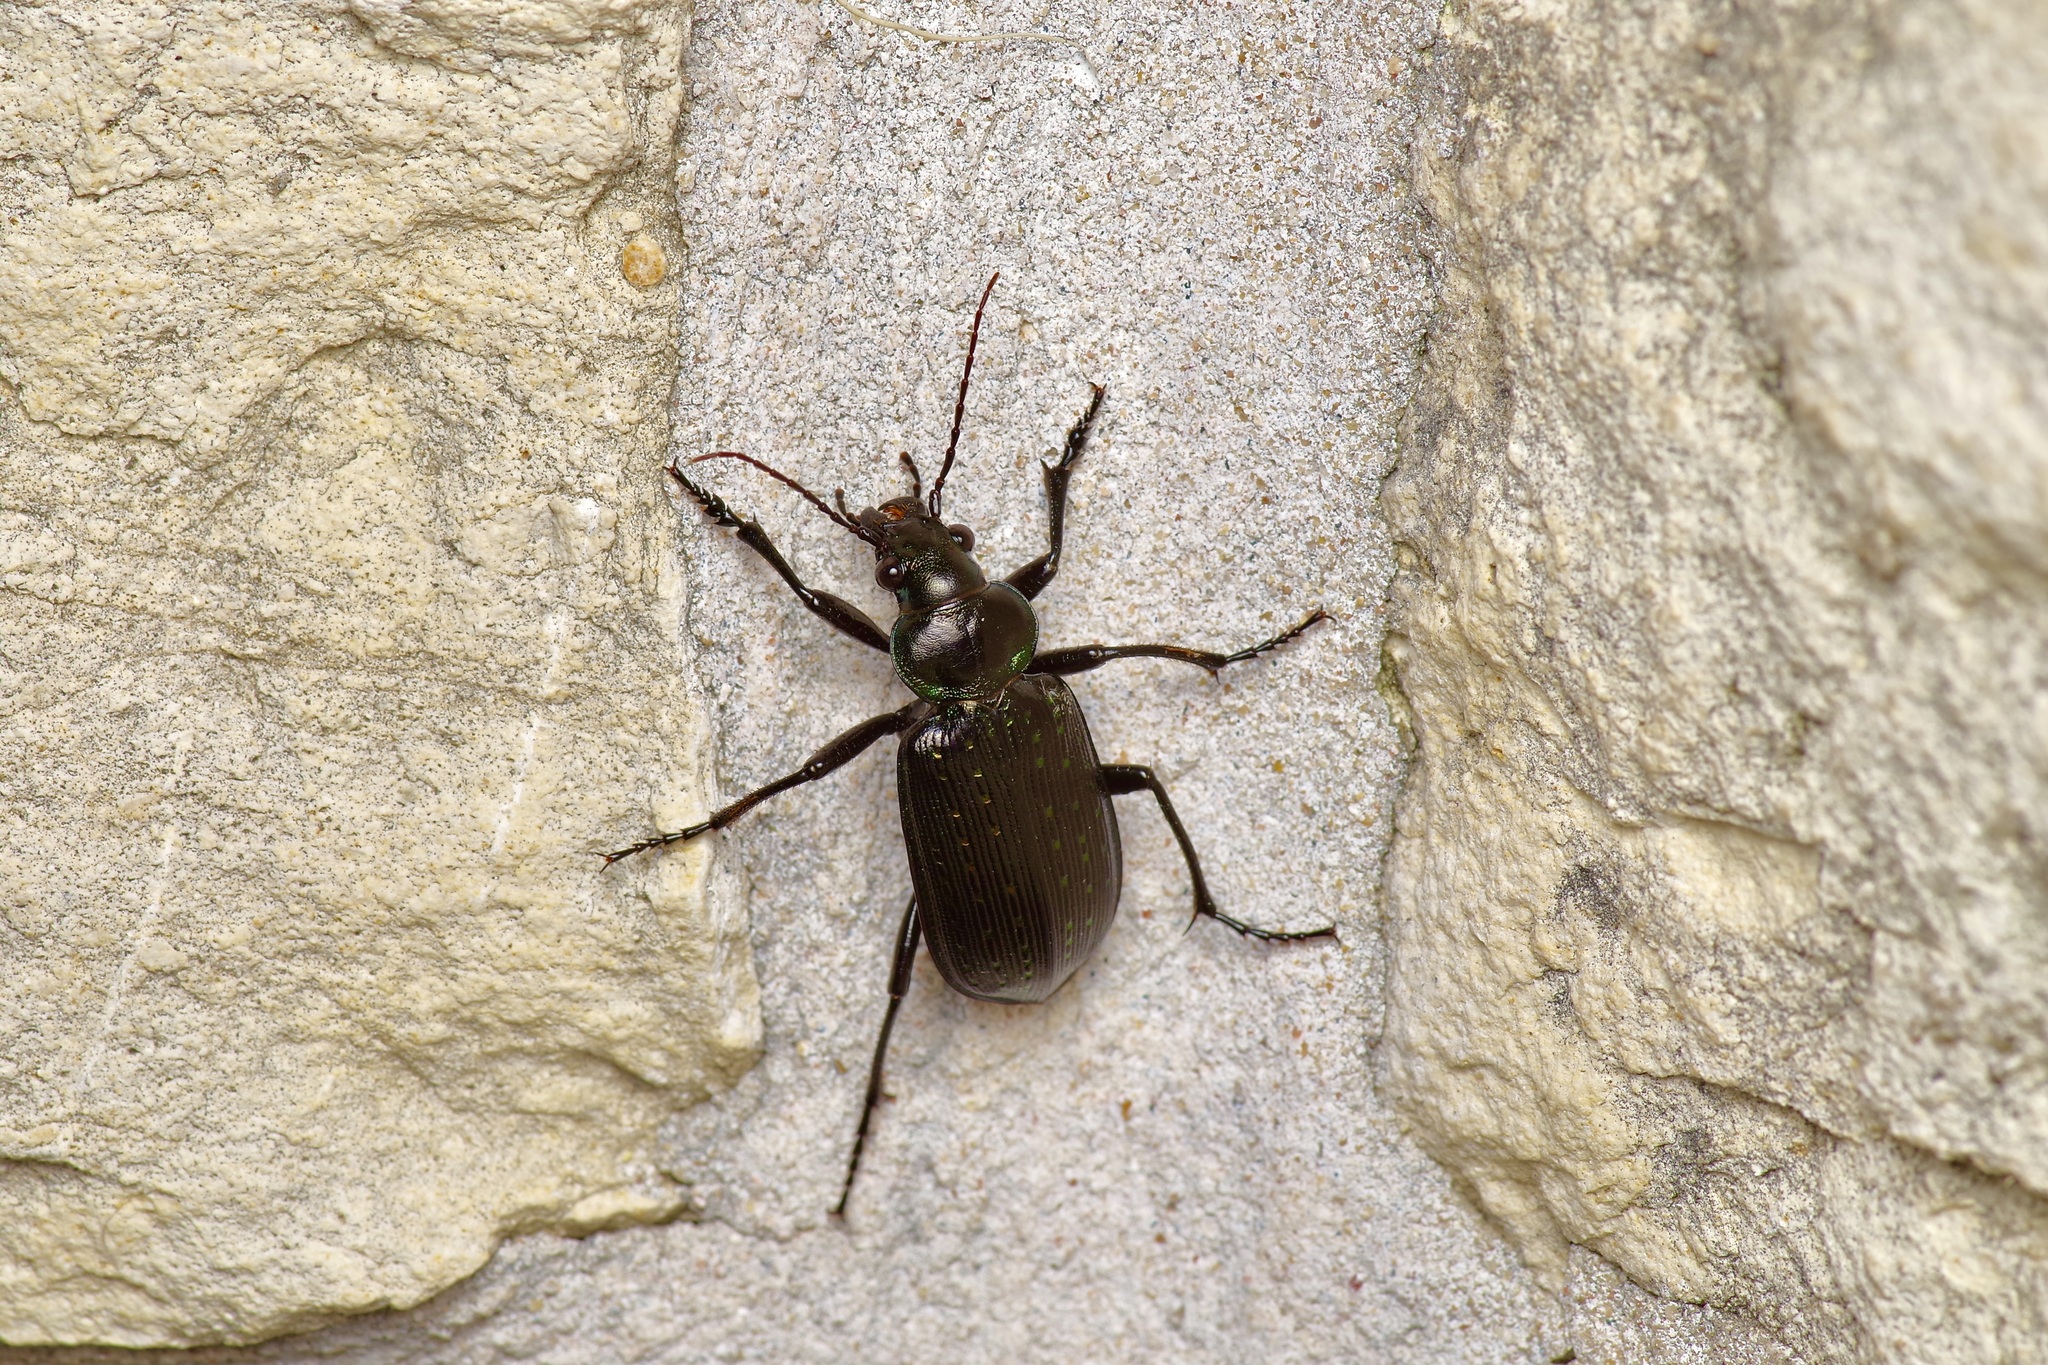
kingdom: Animalia
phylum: Arthropoda
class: Insecta
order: Coleoptera
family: Carabidae
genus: Calosoma
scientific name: Calosoma sayi
